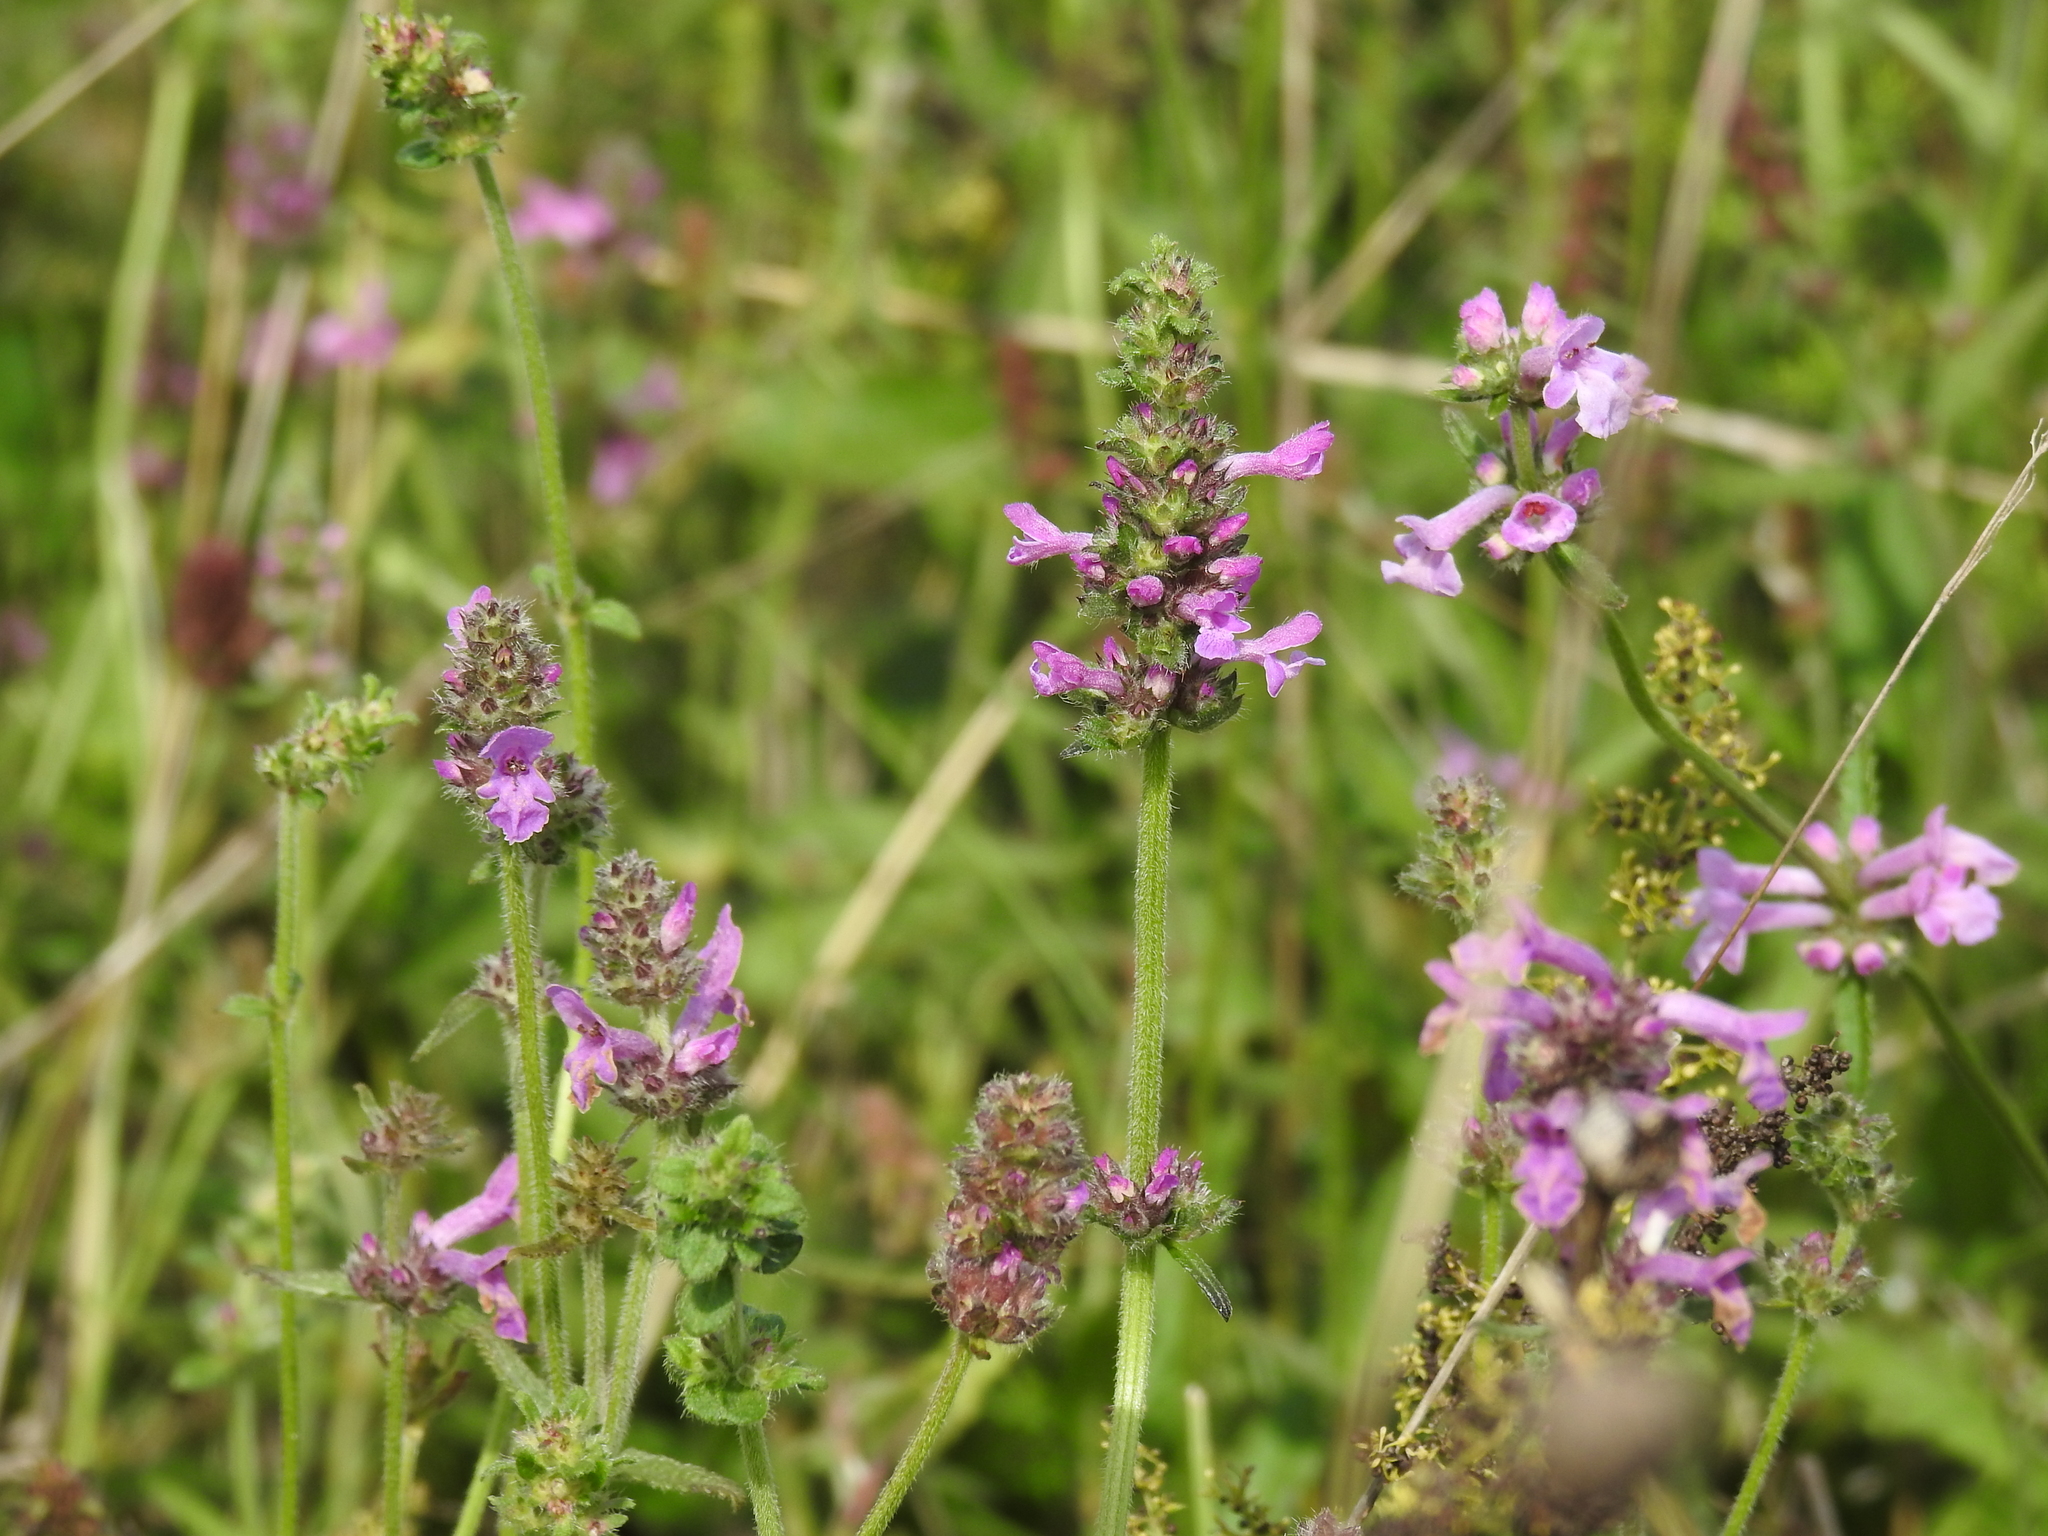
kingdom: Plantae
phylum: Tracheophyta
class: Magnoliopsida
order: Lamiales
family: Lamiaceae
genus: Betonica
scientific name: Betonica officinalis
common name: Bishop's-wort
